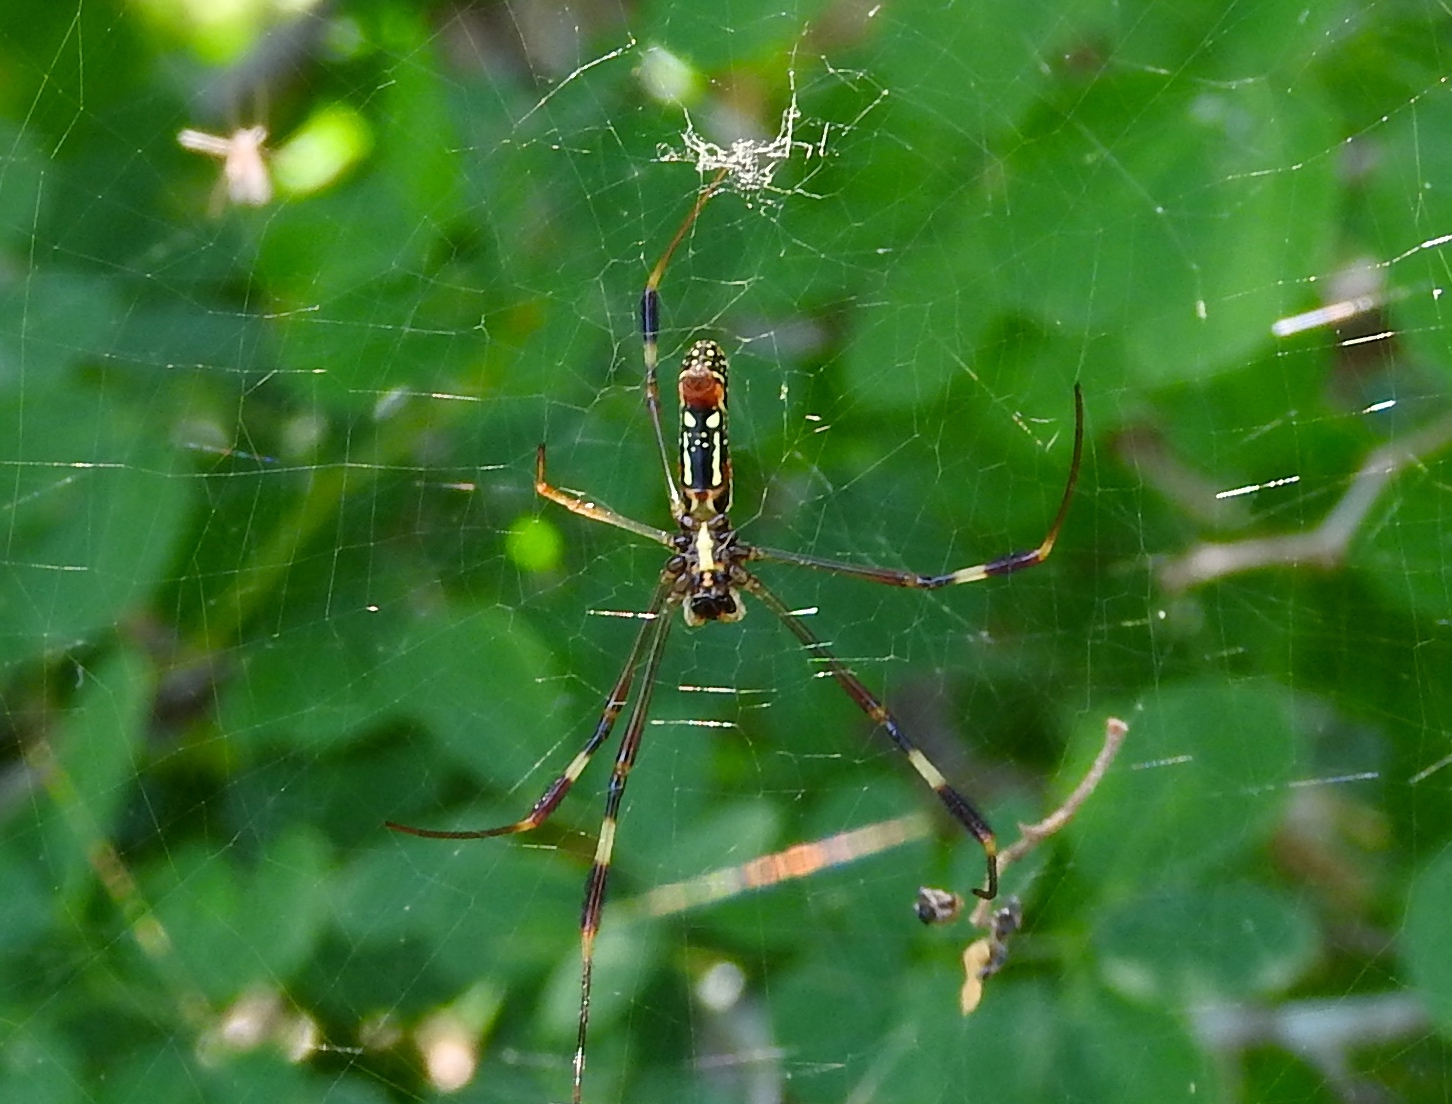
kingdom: Animalia
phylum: Arthropoda
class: Arachnida
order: Araneae
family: Araneidae
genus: Trichonephila
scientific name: Trichonephila clavipes
